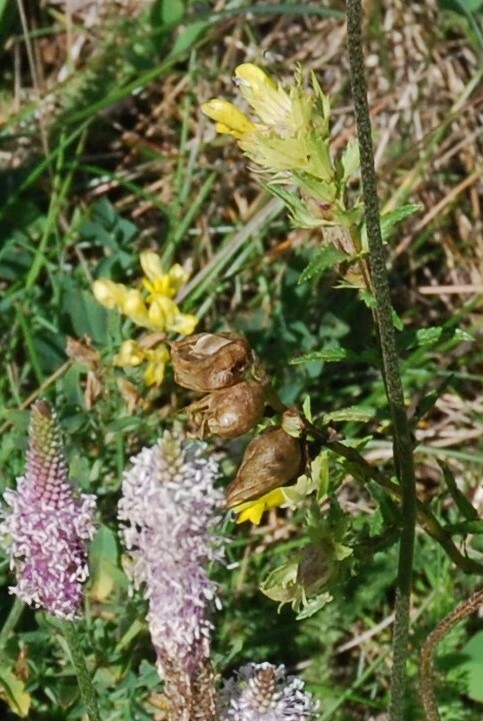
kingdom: Plantae
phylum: Tracheophyta
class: Magnoliopsida
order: Lamiales
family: Orobanchaceae
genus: Rhinanthus
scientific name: Rhinanthus serotinus
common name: Late-flowering yellow rattle
